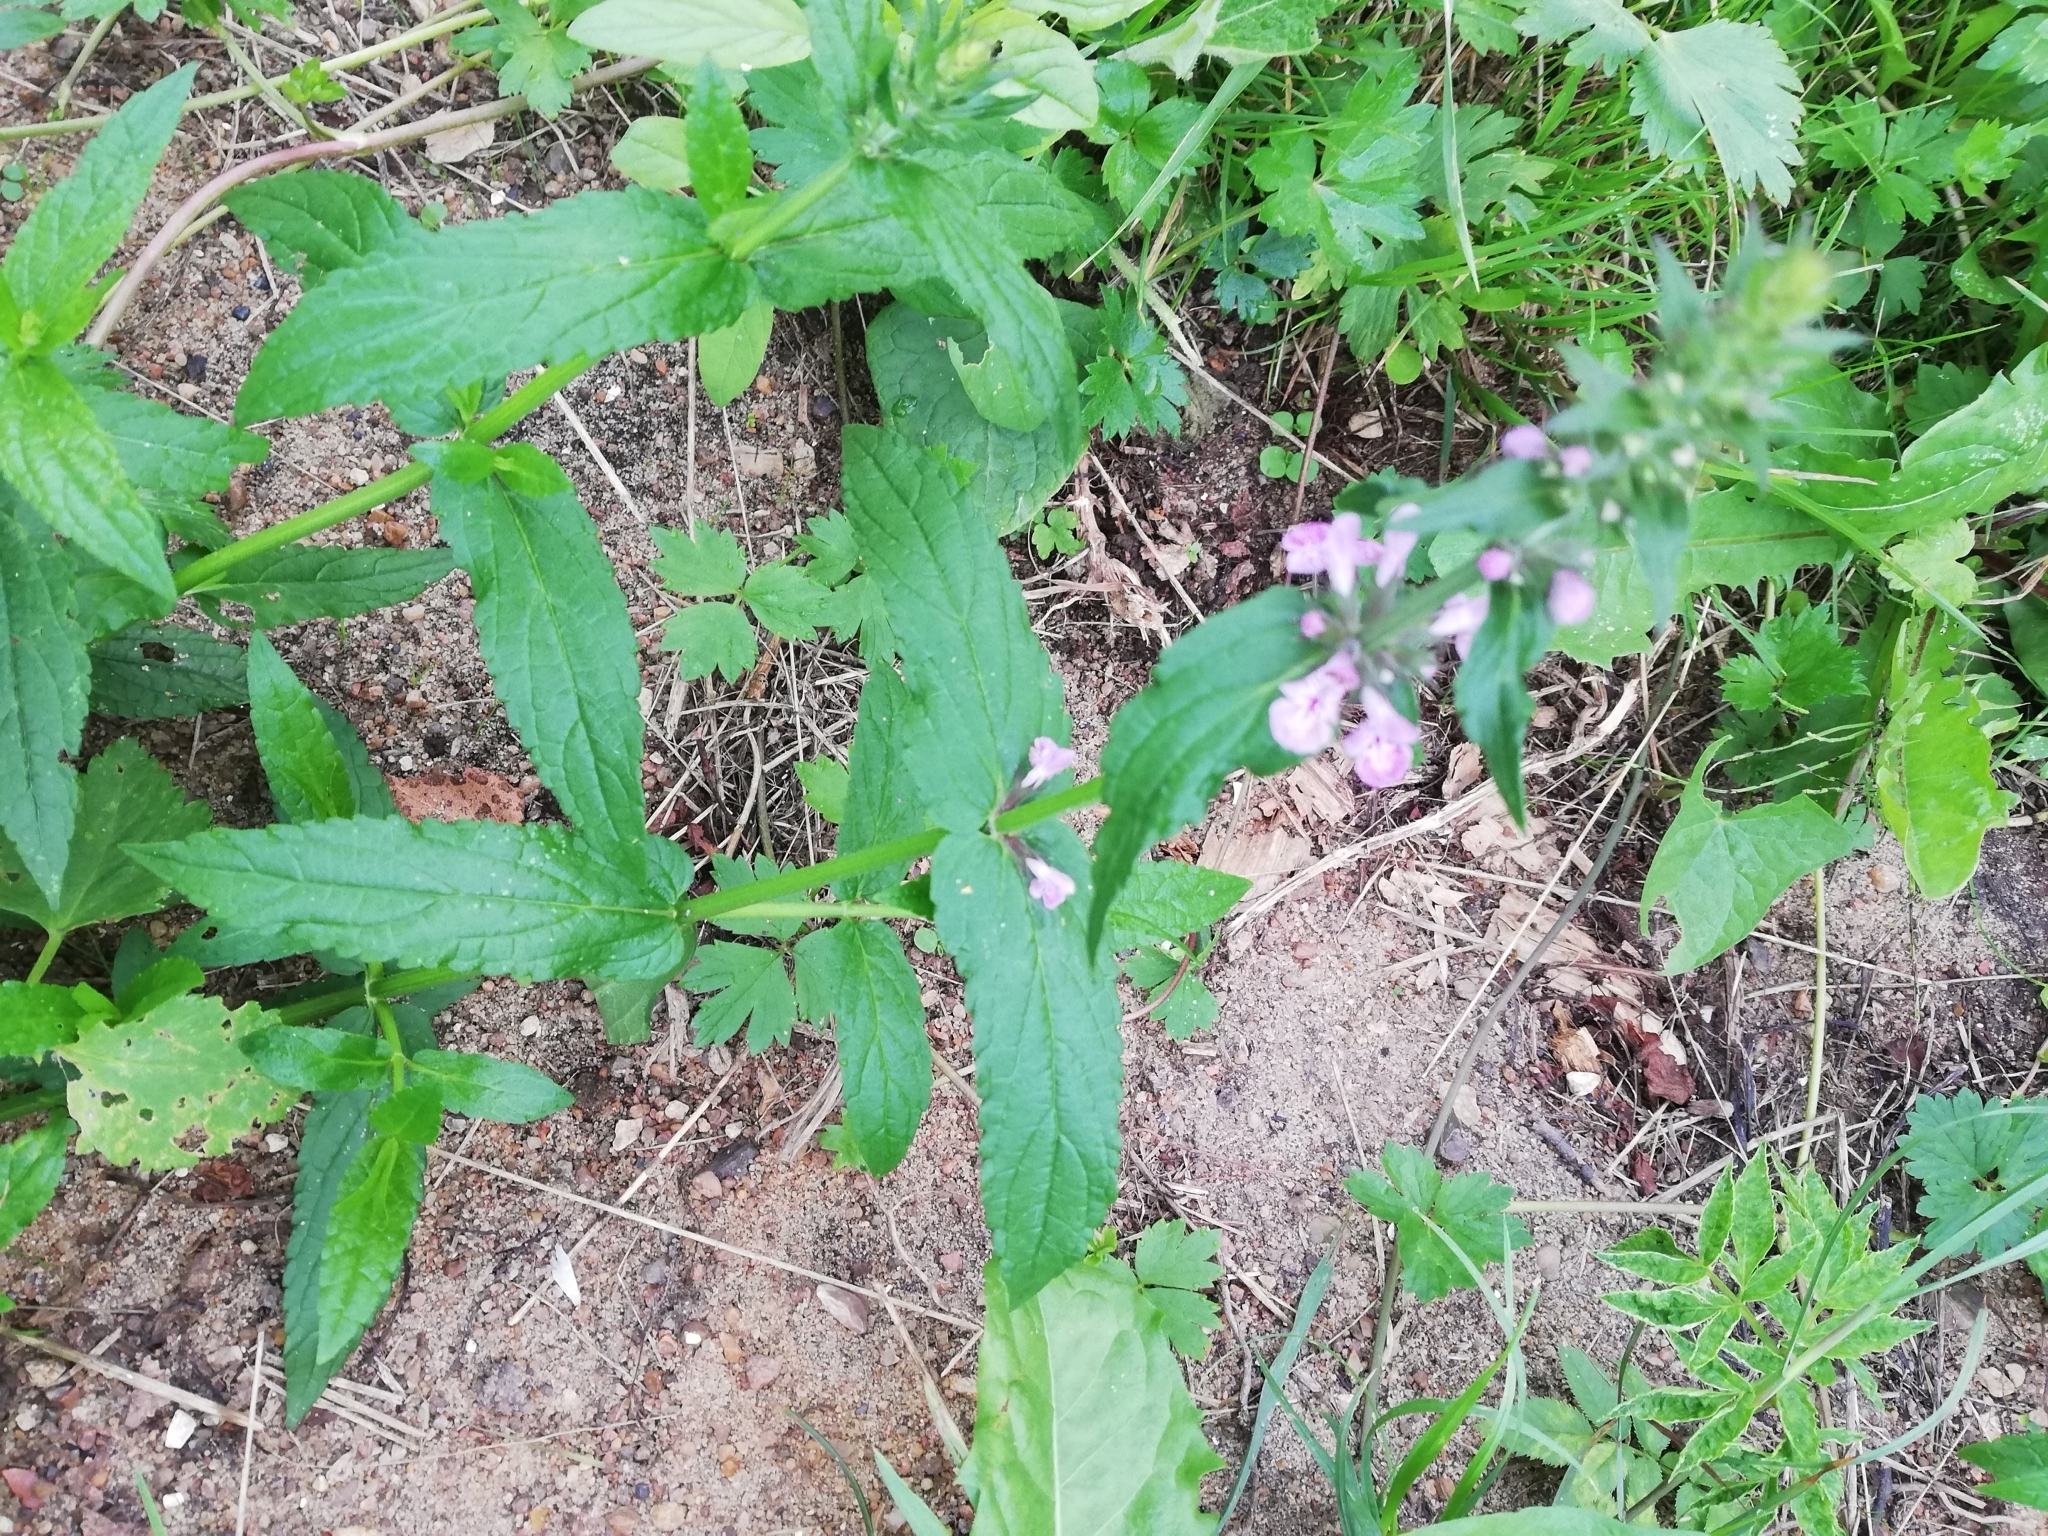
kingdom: Plantae
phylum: Tracheophyta
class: Magnoliopsida
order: Lamiales
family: Lamiaceae
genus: Stachys
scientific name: Stachys palustris
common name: Marsh woundwort
